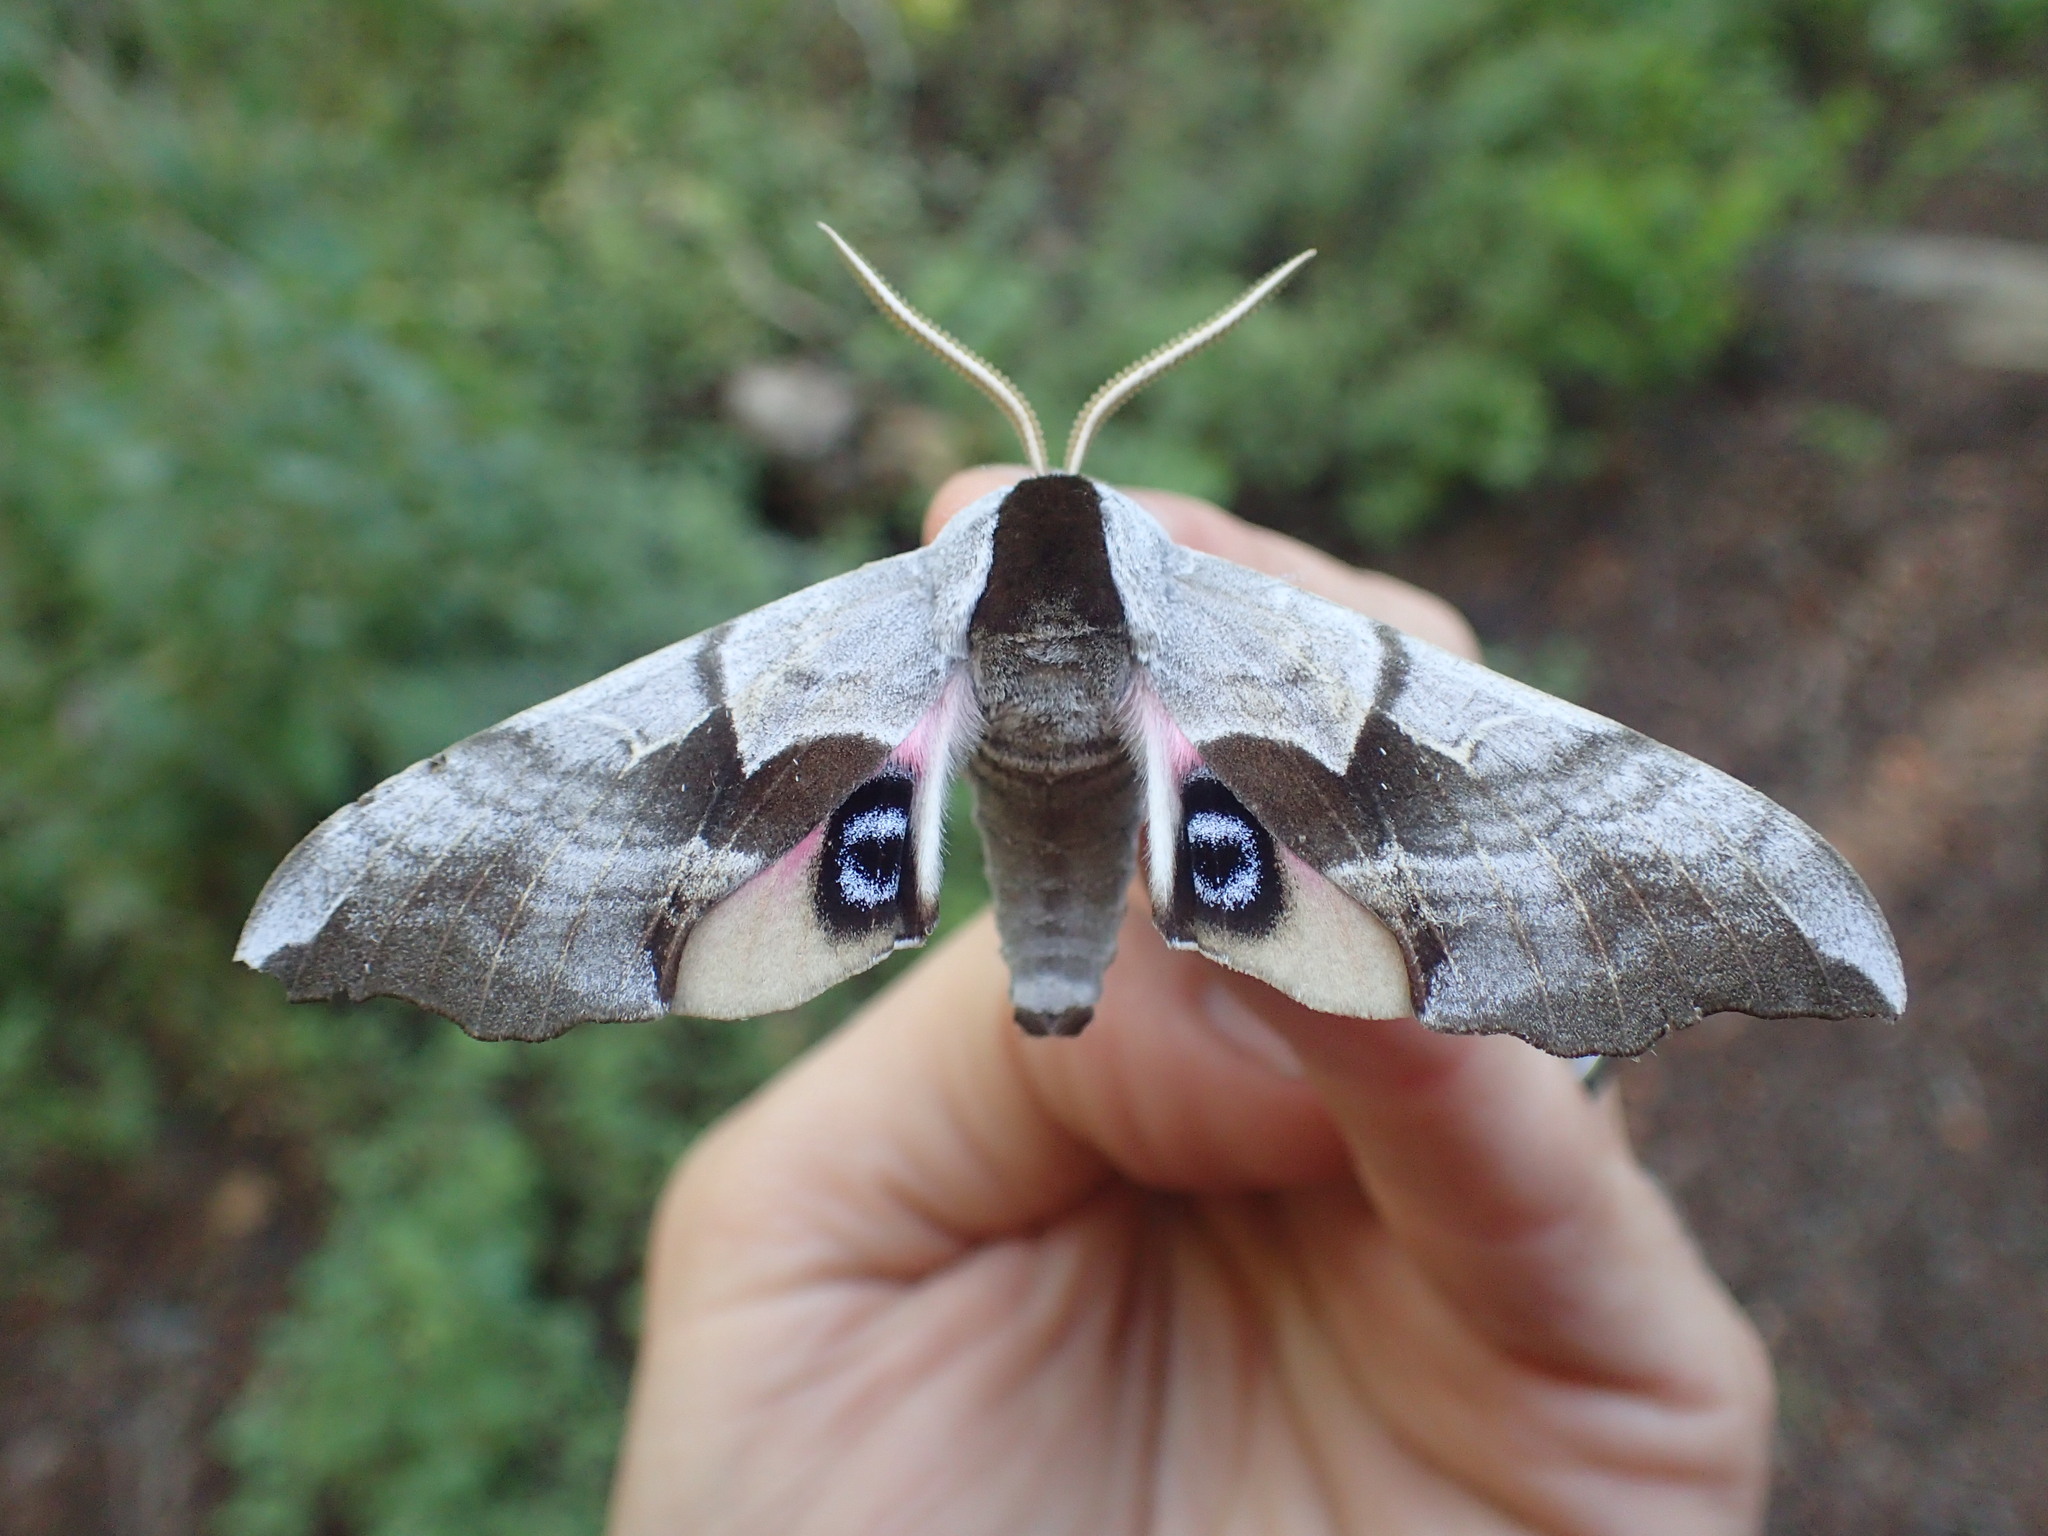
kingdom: Animalia
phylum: Arthropoda
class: Insecta
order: Lepidoptera
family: Sphingidae
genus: Smerinthus
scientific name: Smerinthus cerisyi
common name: Cerisy's sphinx moth
